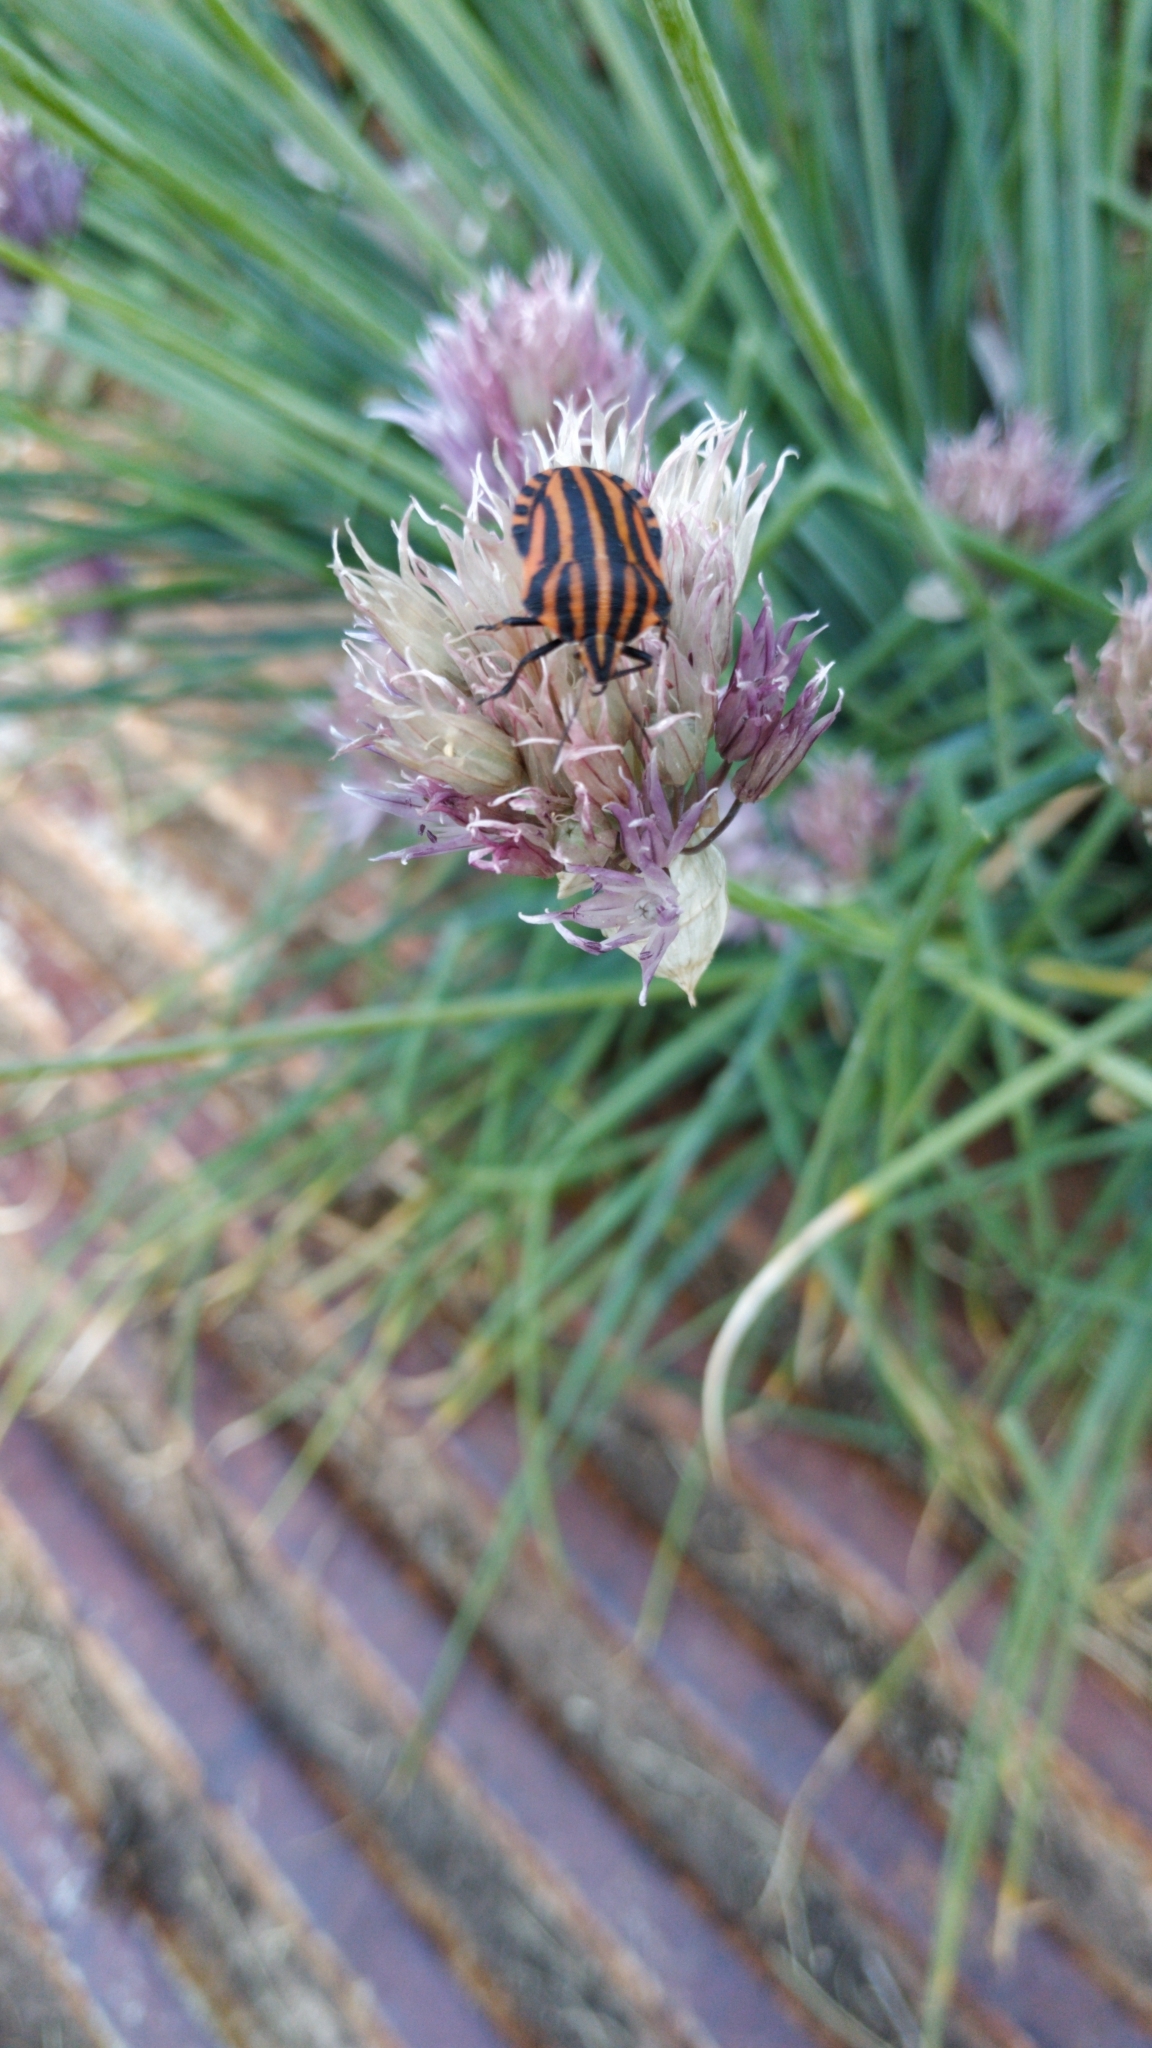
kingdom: Animalia
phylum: Arthropoda
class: Insecta
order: Hemiptera
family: Pentatomidae
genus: Graphosoma
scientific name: Graphosoma italicum
